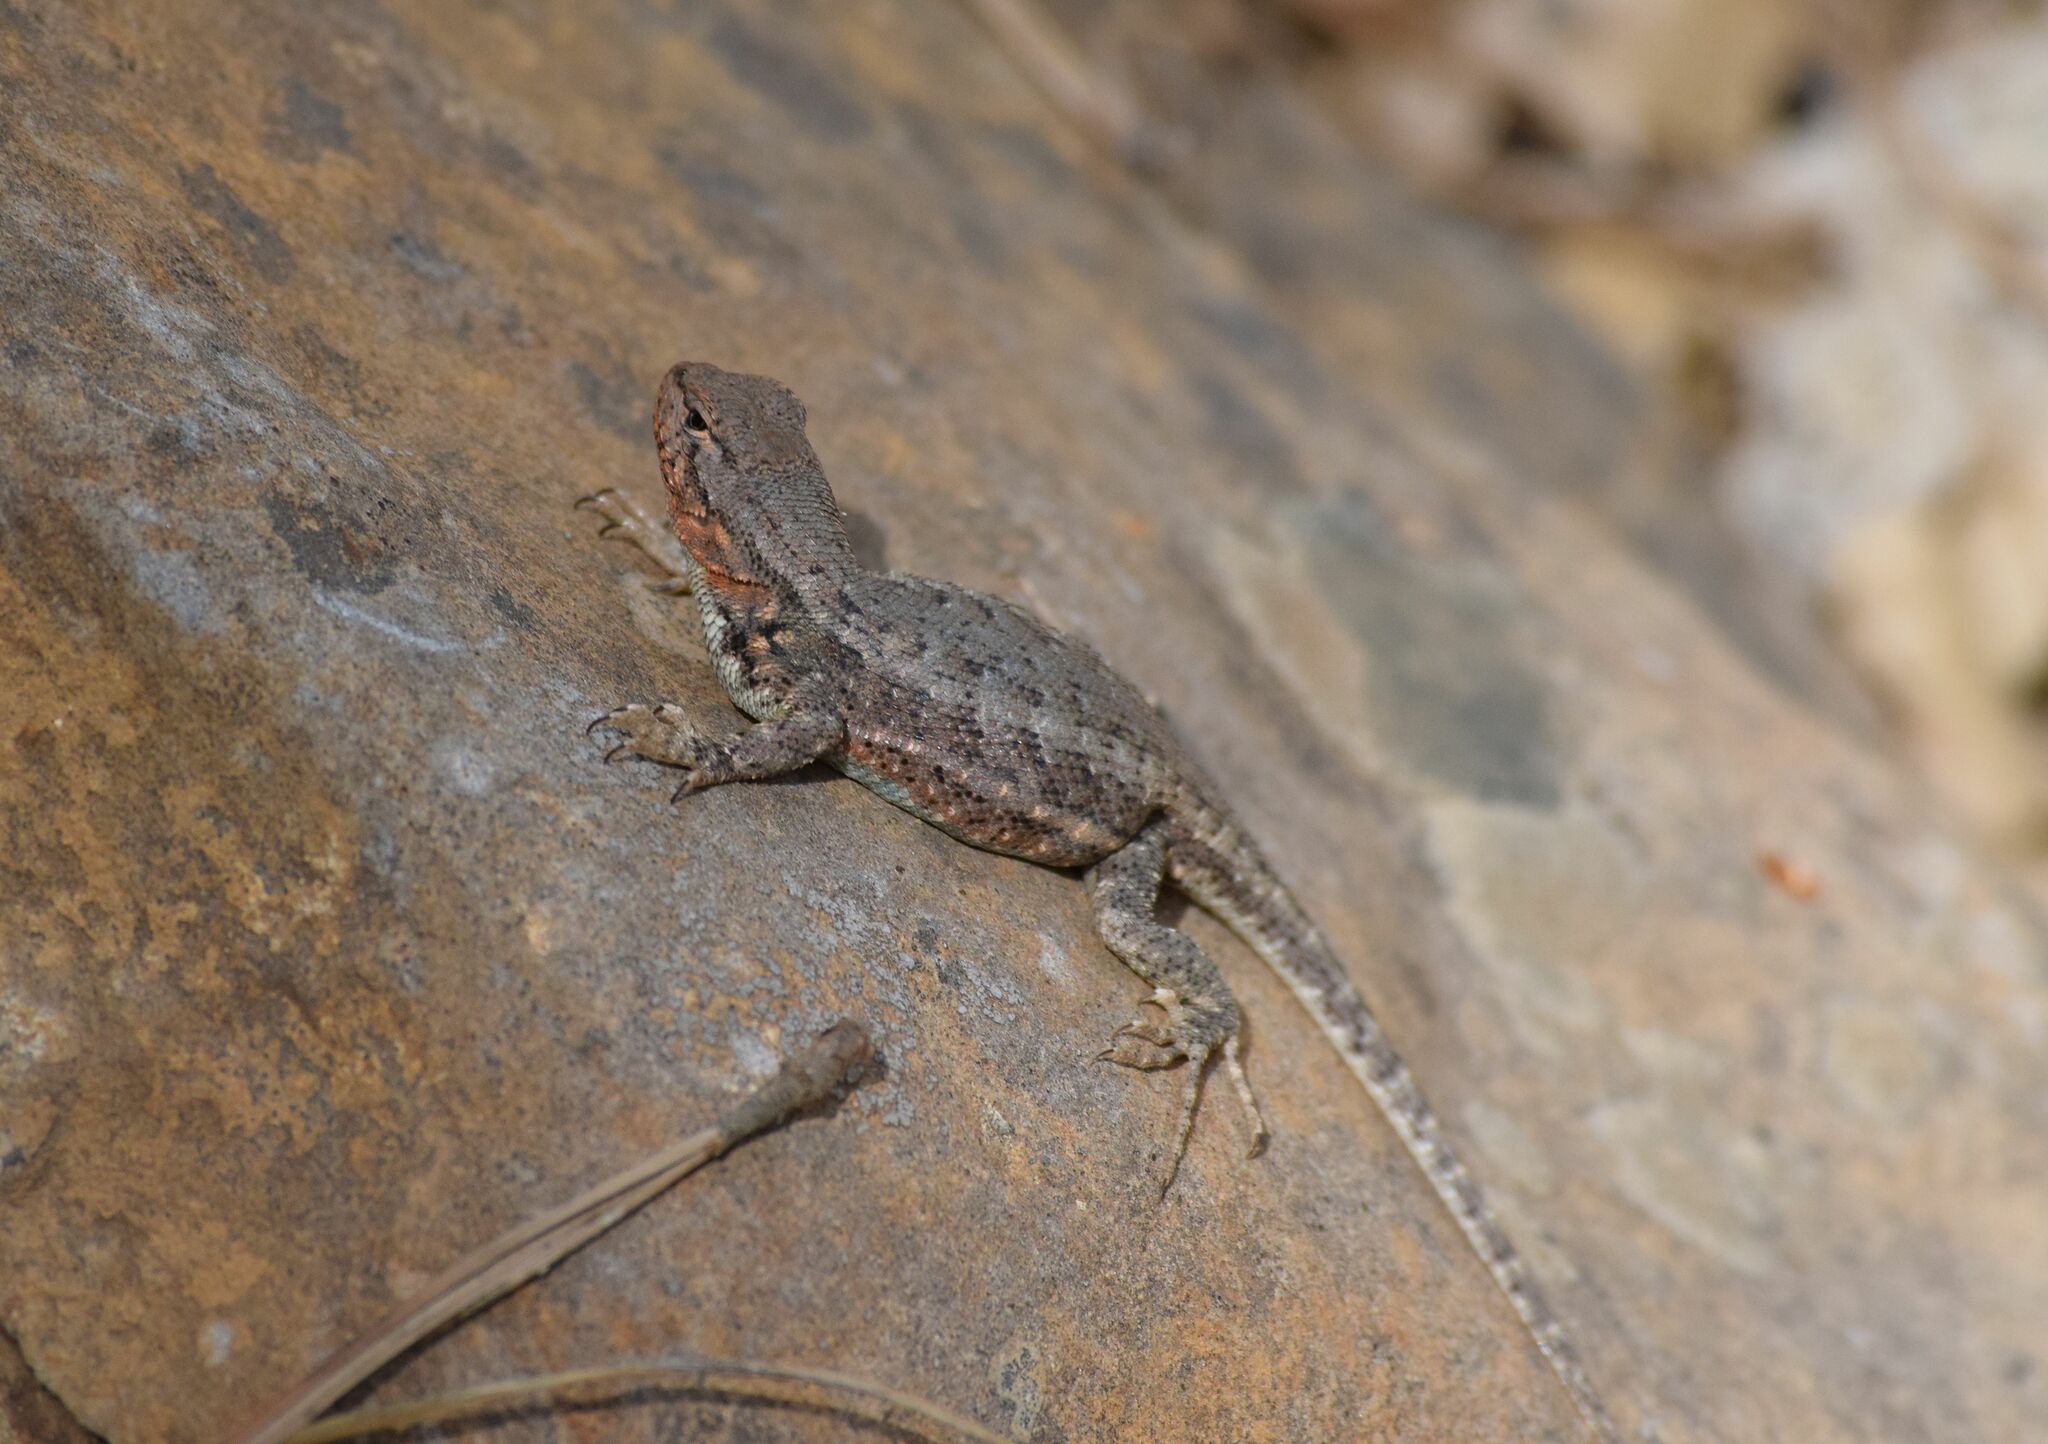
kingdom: Animalia
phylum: Chordata
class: Squamata
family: Phrynosomatidae
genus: Sceloporus
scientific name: Sceloporus graciosus
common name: Sagebrush lizard
